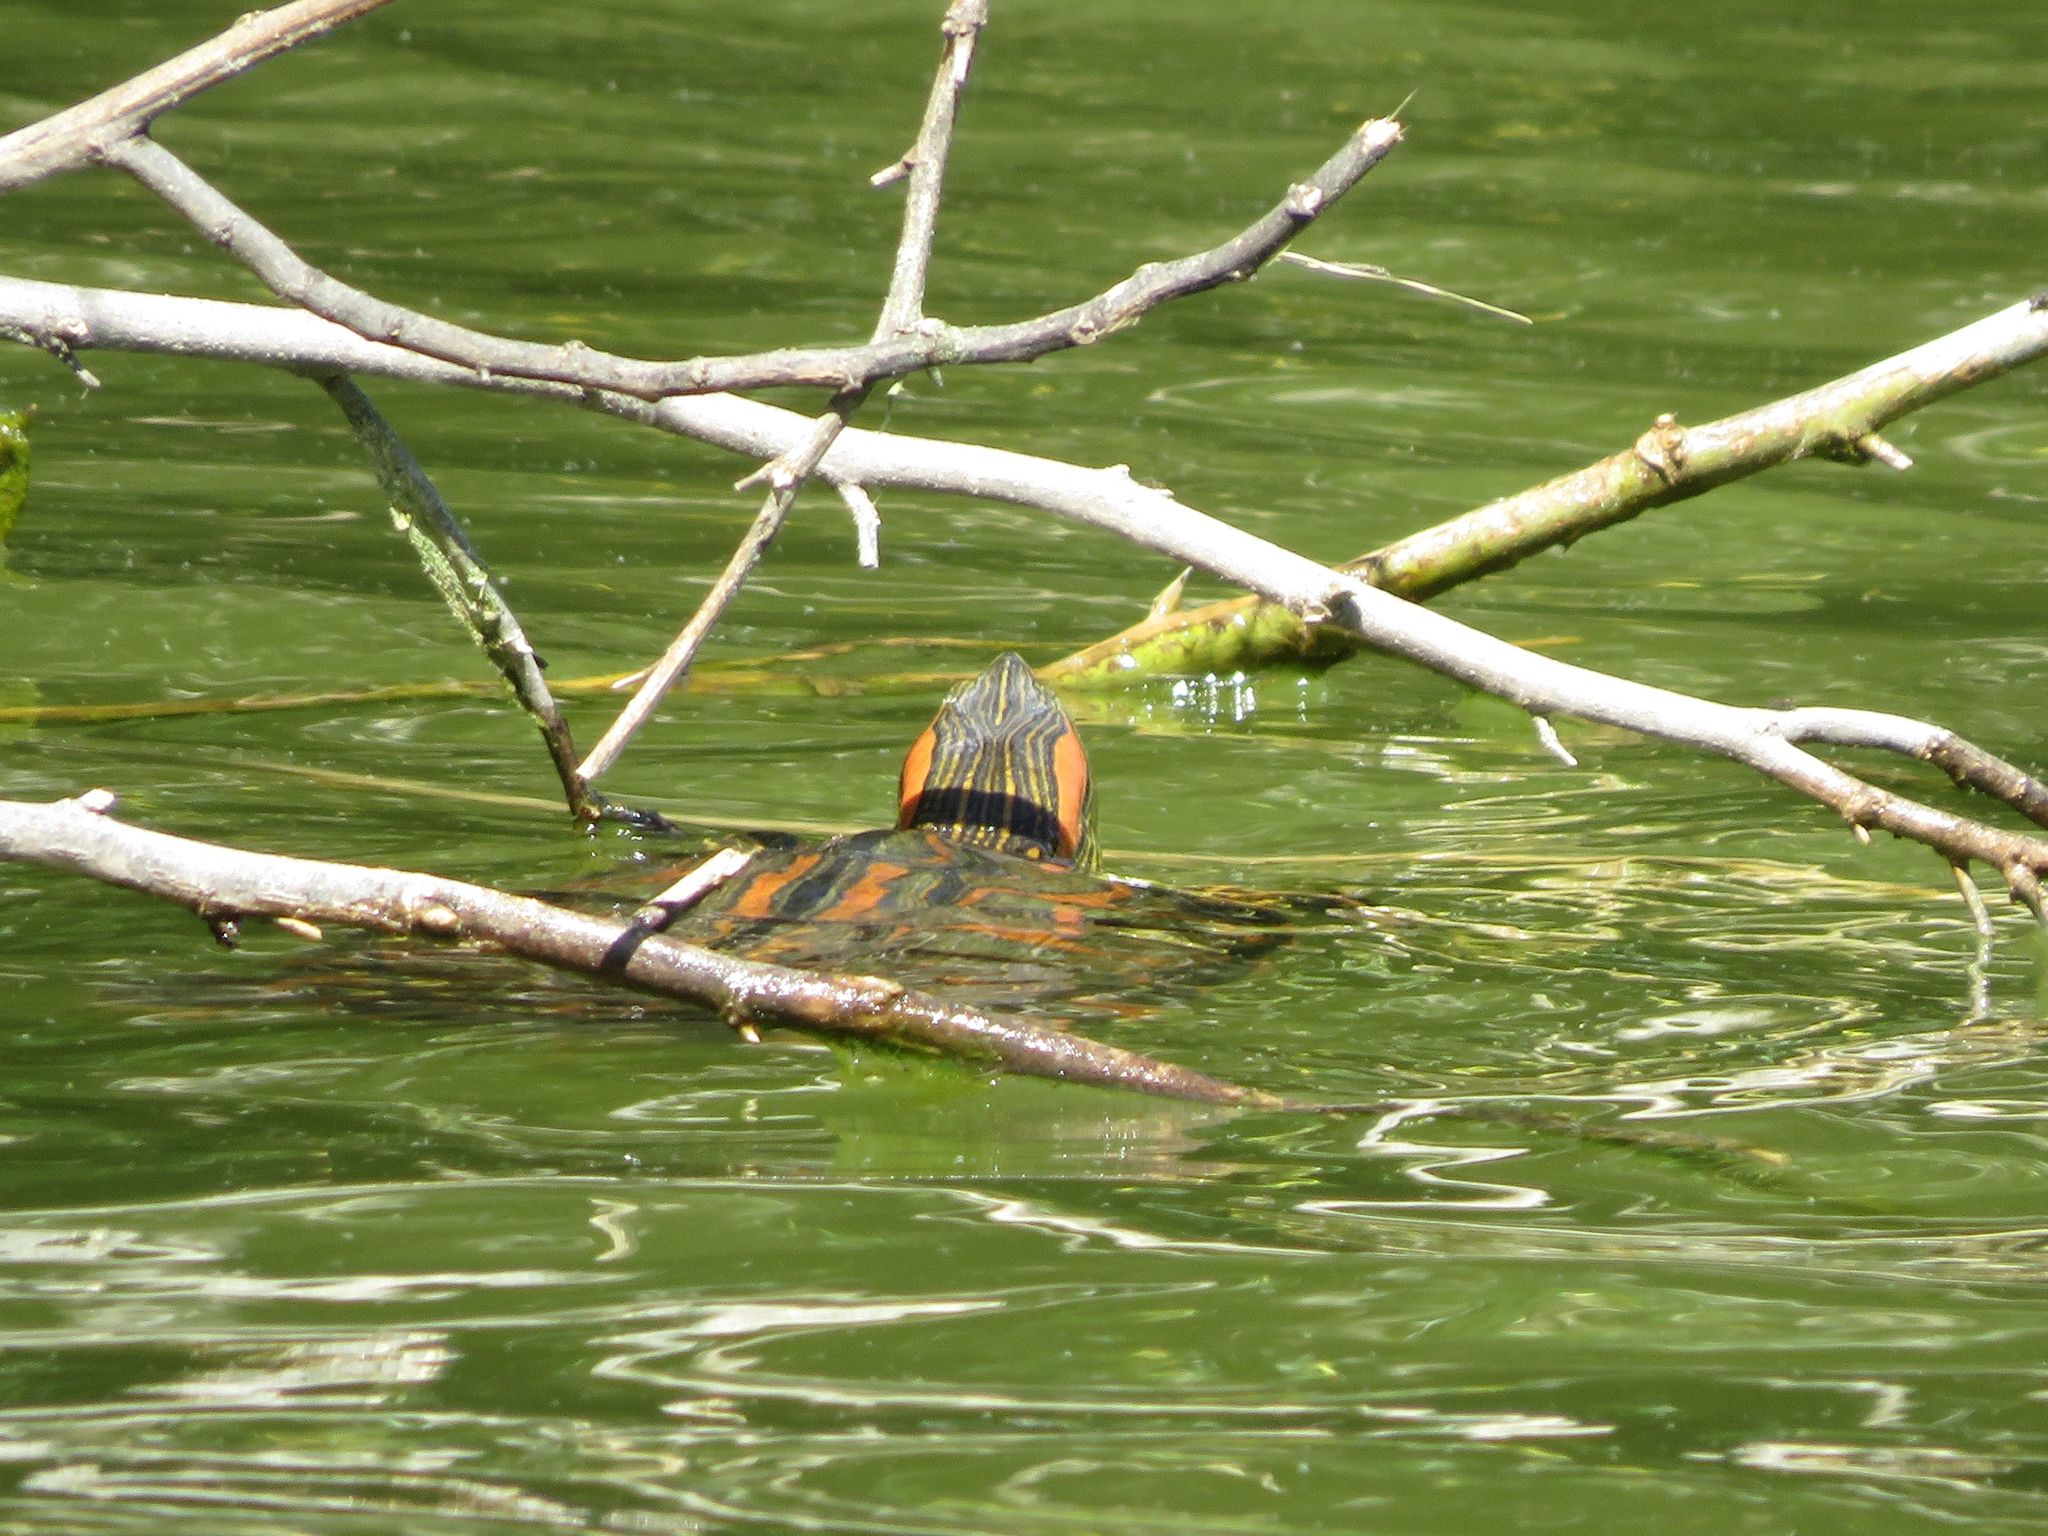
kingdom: Animalia
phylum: Chordata
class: Testudines
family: Emydidae
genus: Trachemys
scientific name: Trachemys scripta
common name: Slider
